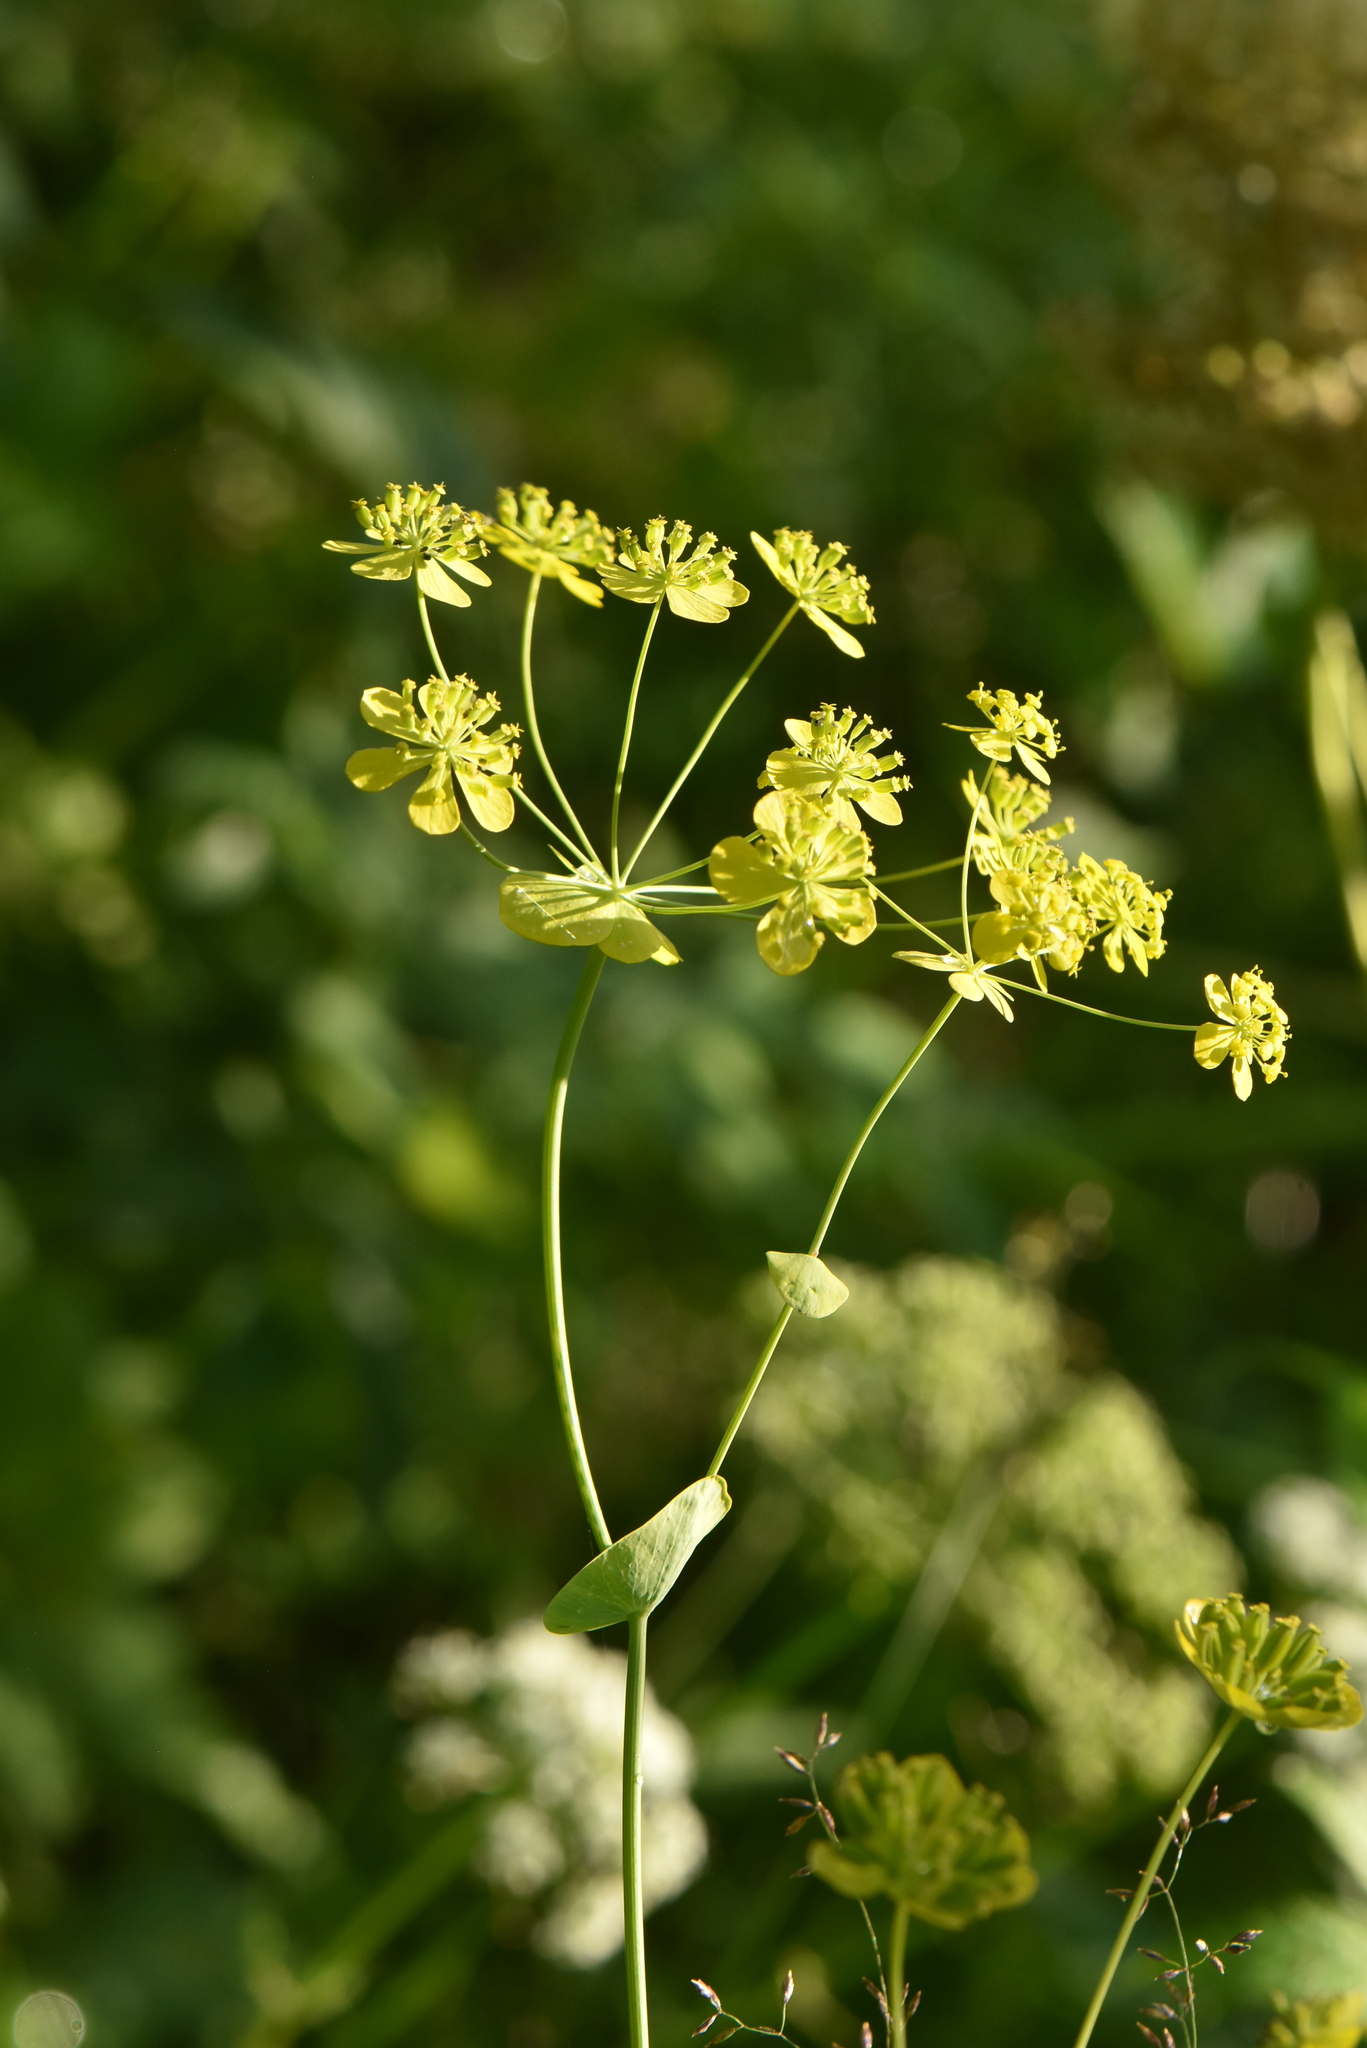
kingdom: Plantae
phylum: Tracheophyta
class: Magnoliopsida
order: Apiales
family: Apiaceae
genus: Bupleurum
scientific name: Bupleurum aureum
